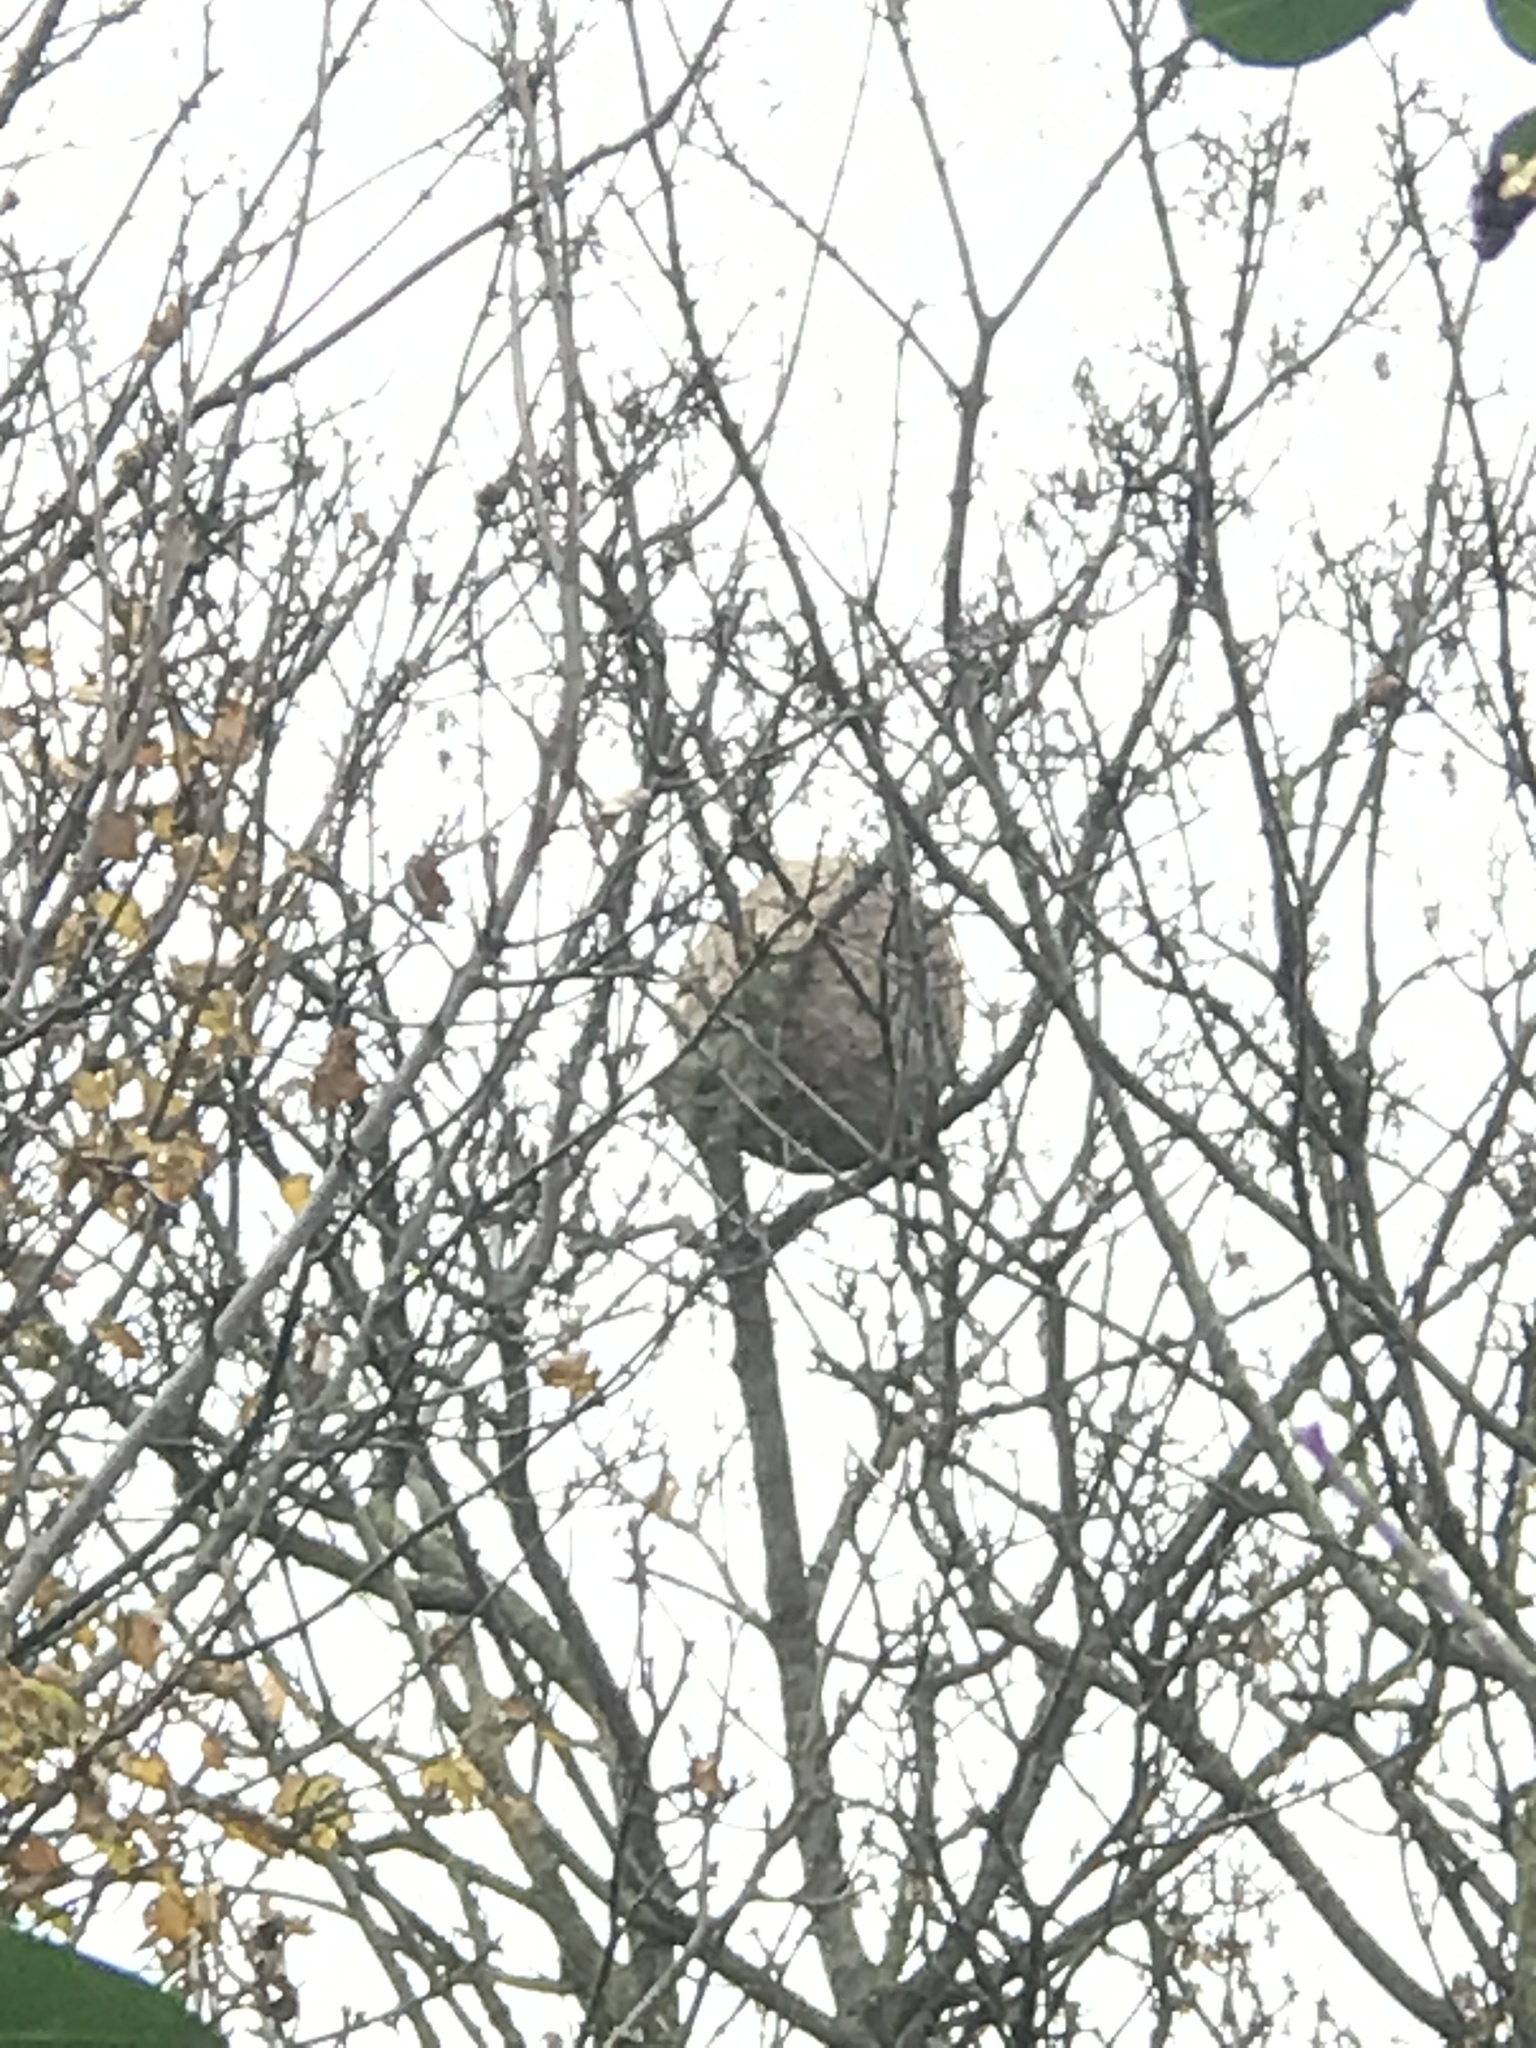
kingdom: Animalia
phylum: Arthropoda
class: Insecta
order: Hymenoptera
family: Vespidae
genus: Vespa
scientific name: Vespa velutina
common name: Asian hornet
